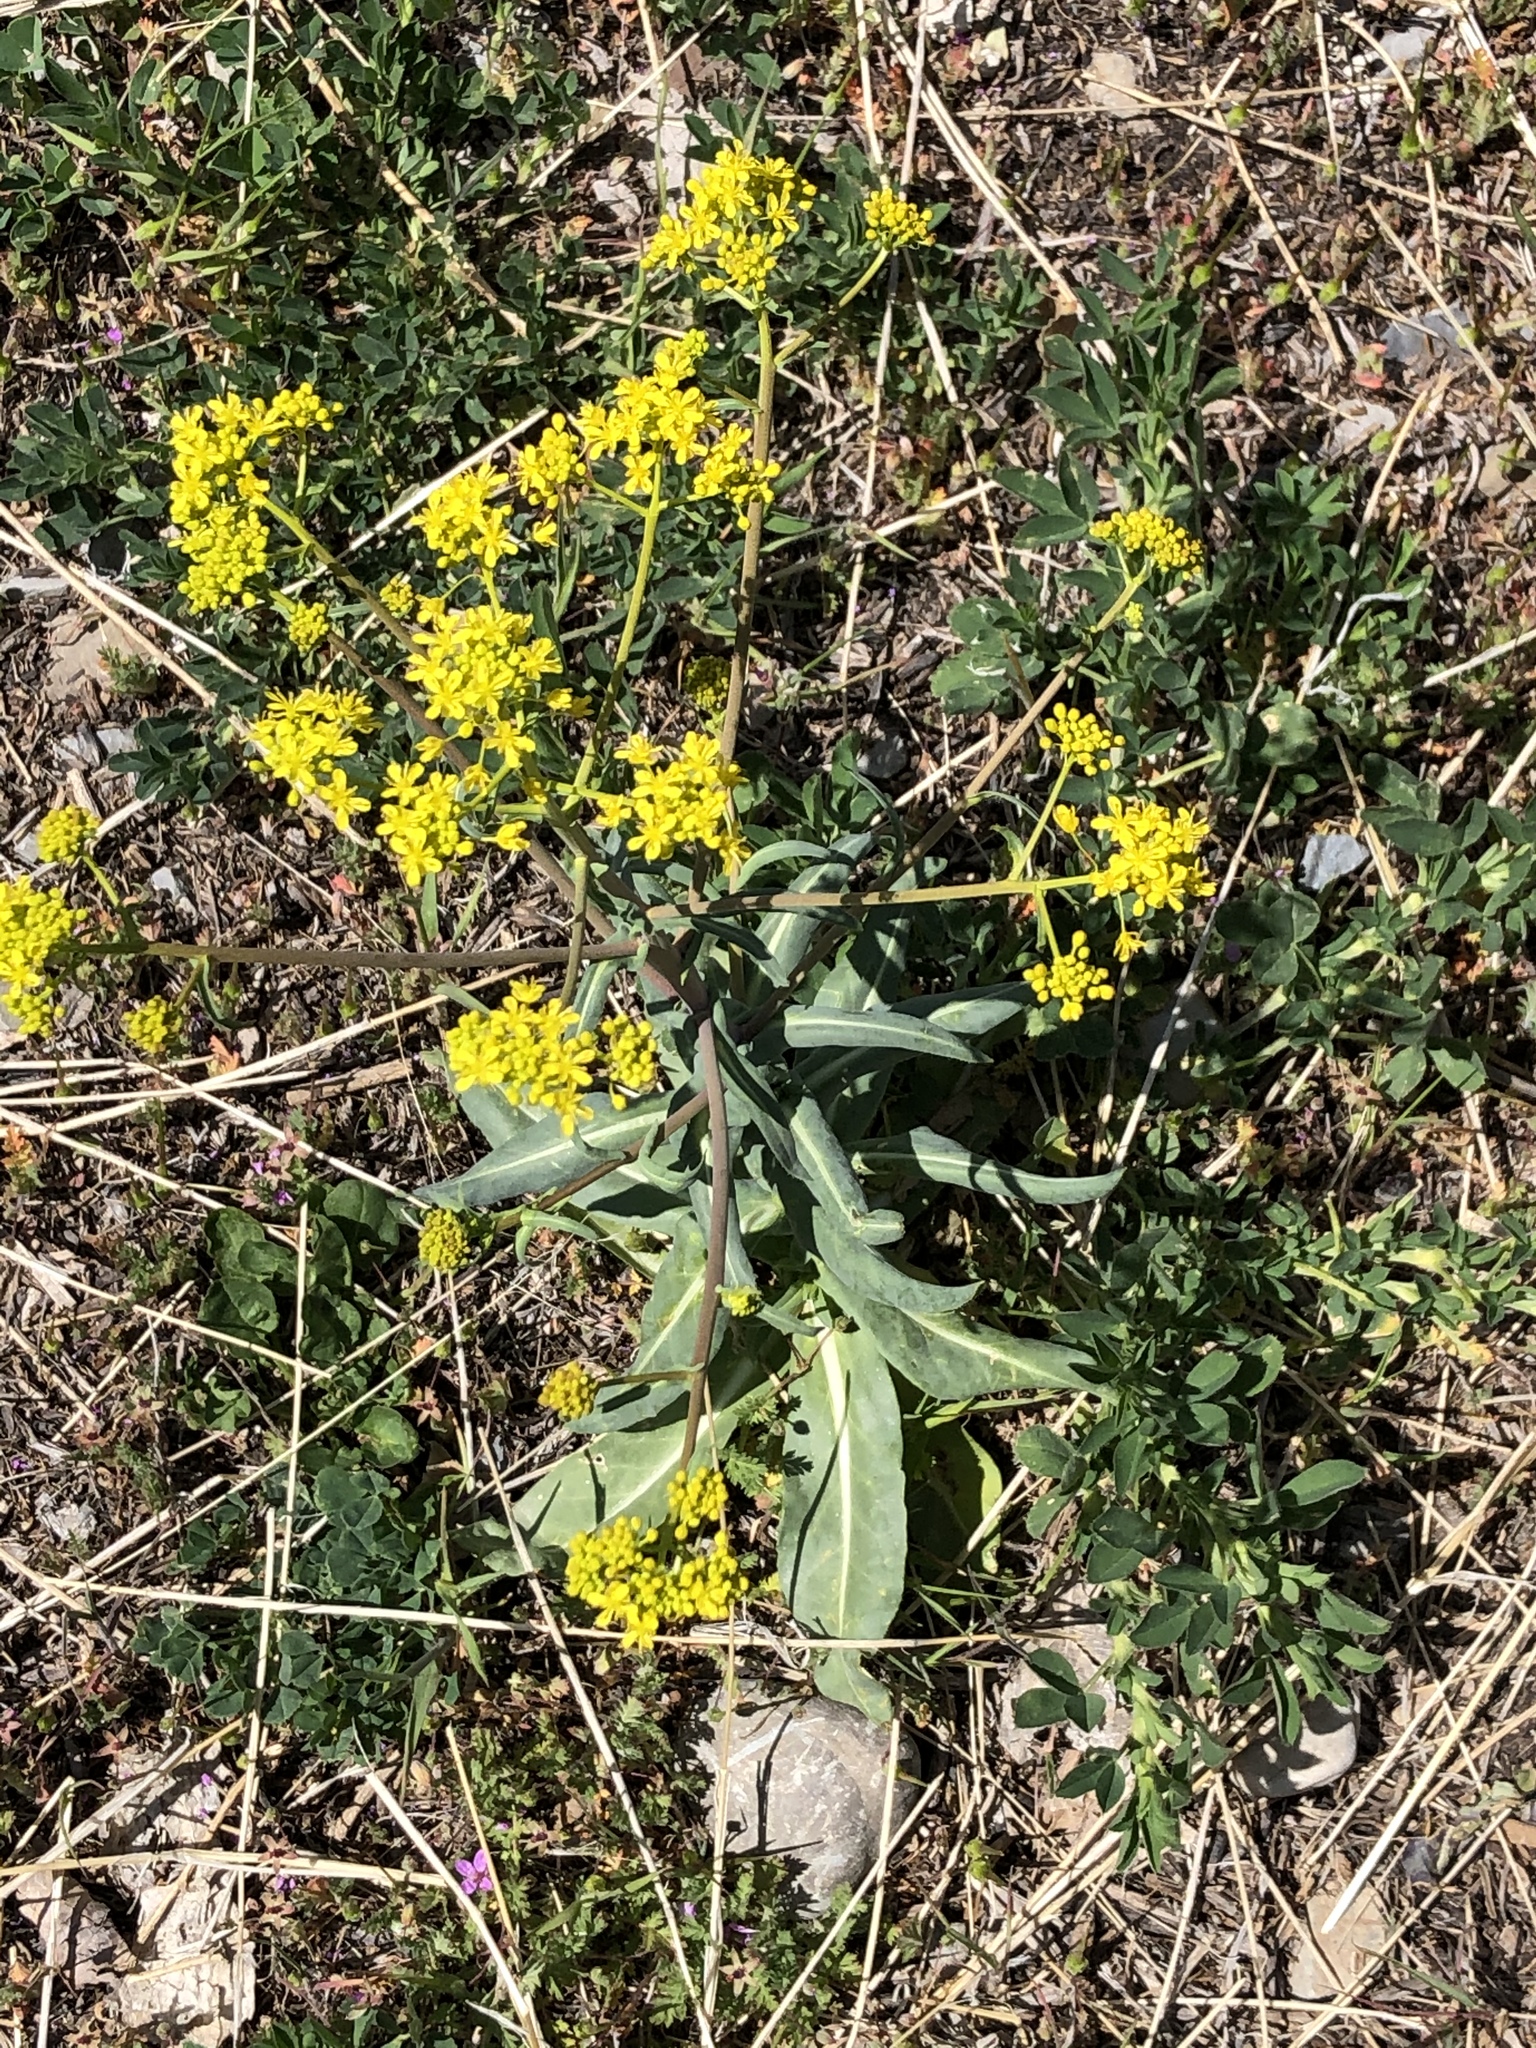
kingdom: Plantae
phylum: Tracheophyta
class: Magnoliopsida
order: Brassicales
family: Brassicaceae
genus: Isatis
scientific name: Isatis tinctoria
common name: Woad
